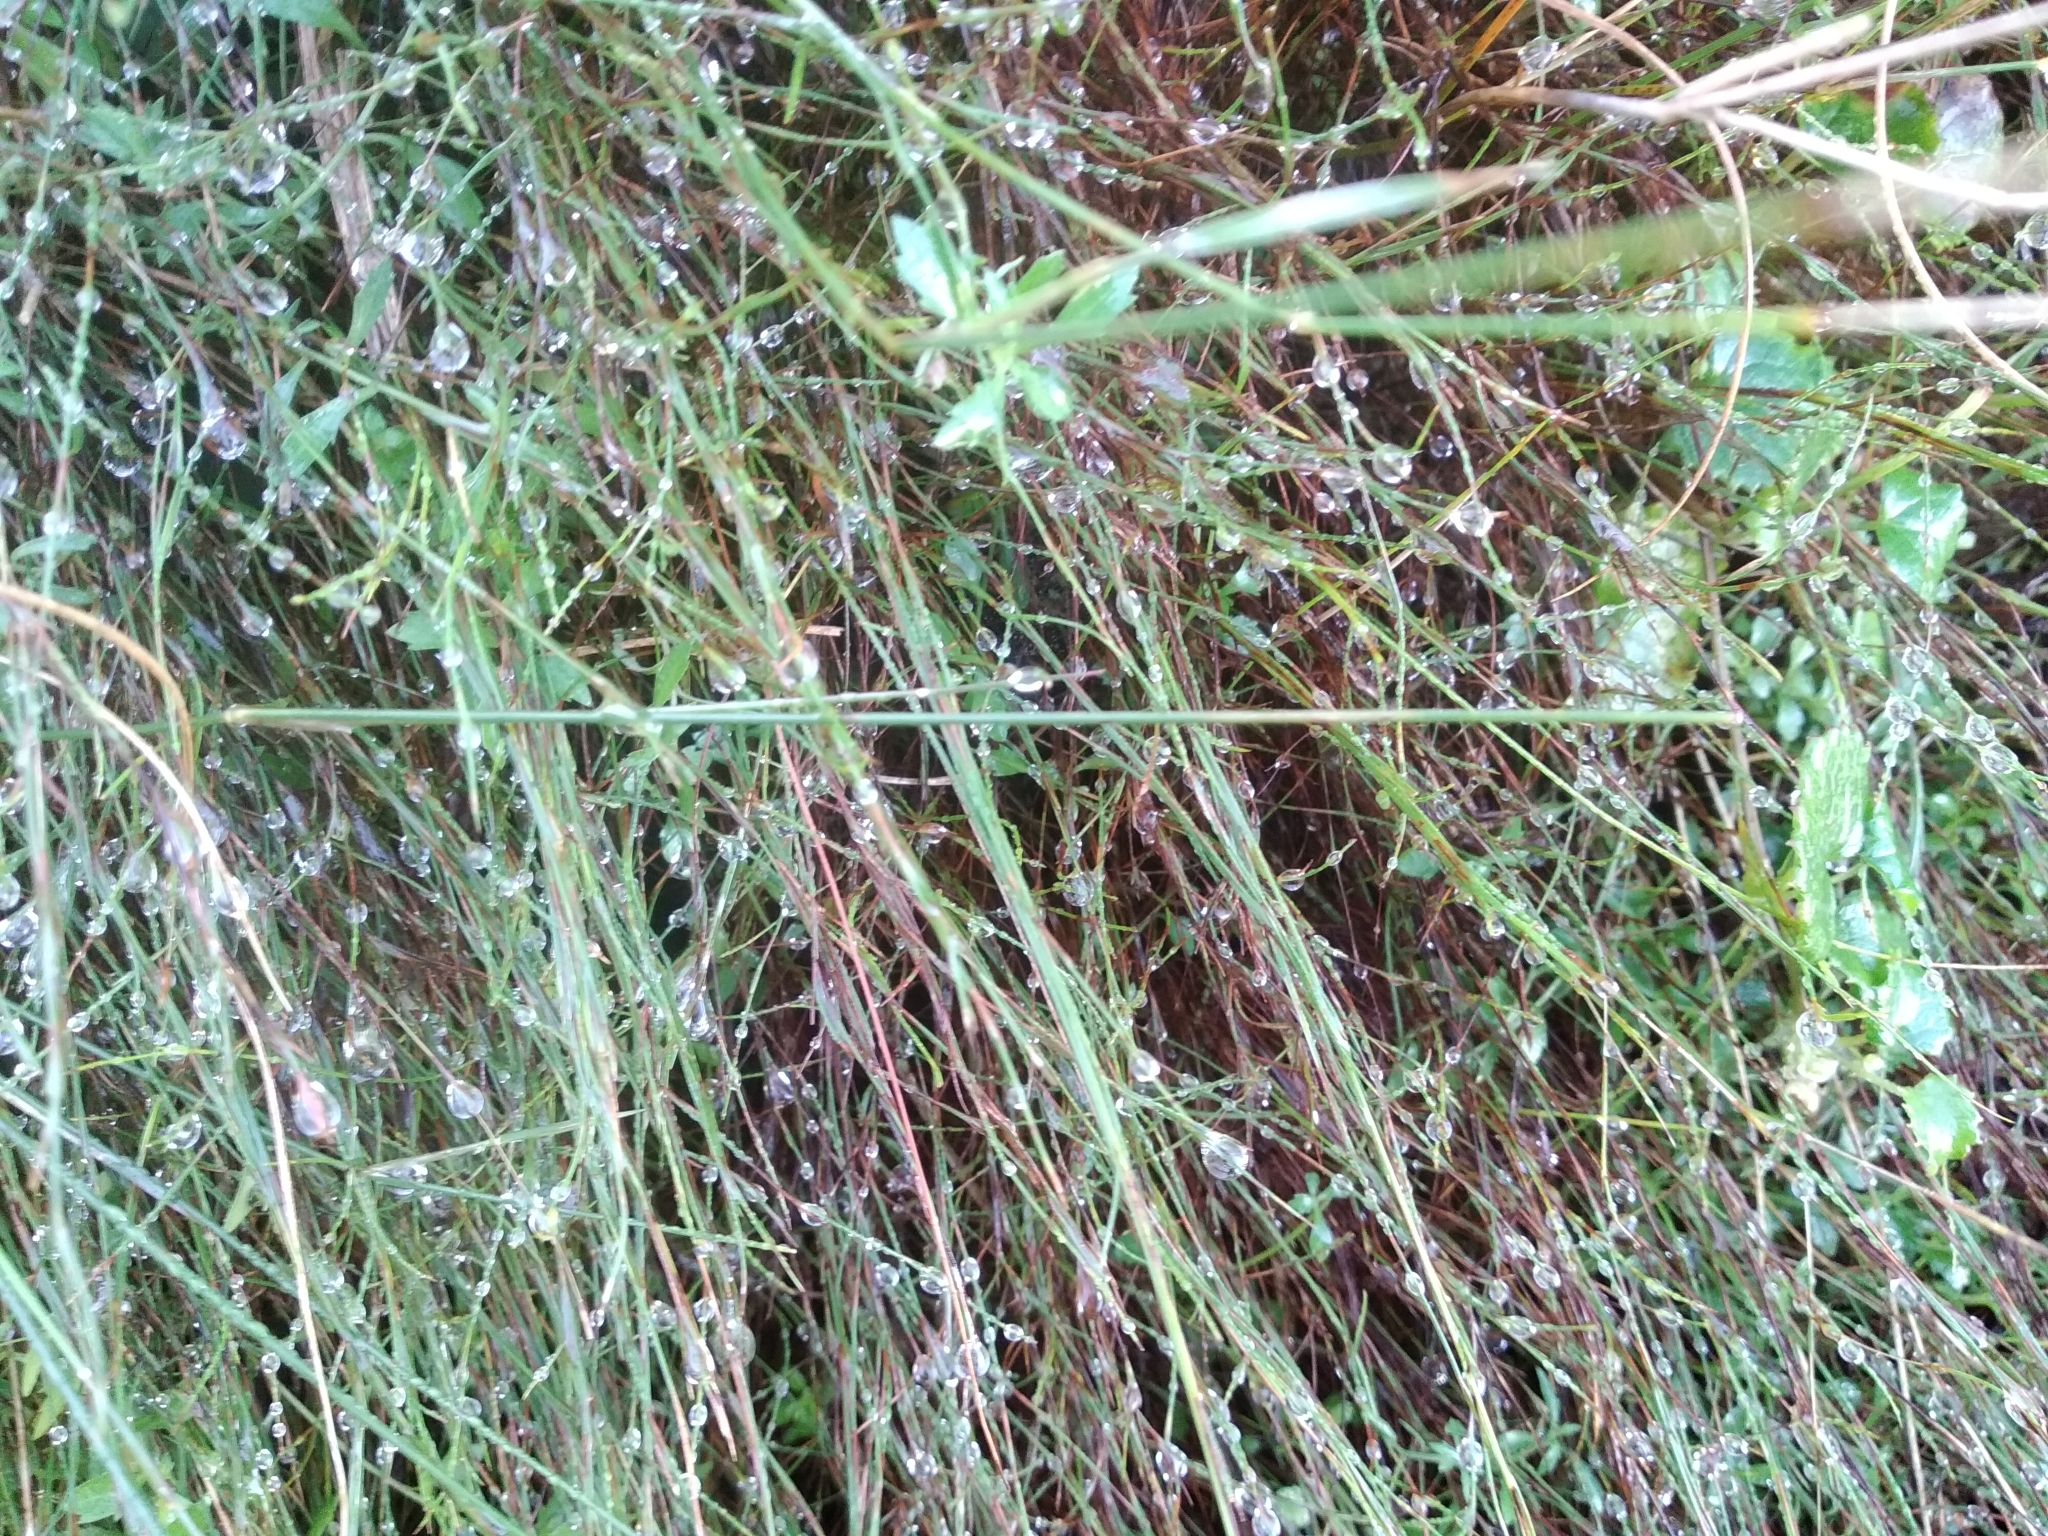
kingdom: Plantae
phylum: Tracheophyta
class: Magnoliopsida
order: Asterales
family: Campanulaceae
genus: Lobelia
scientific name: Lobelia eckloniana
